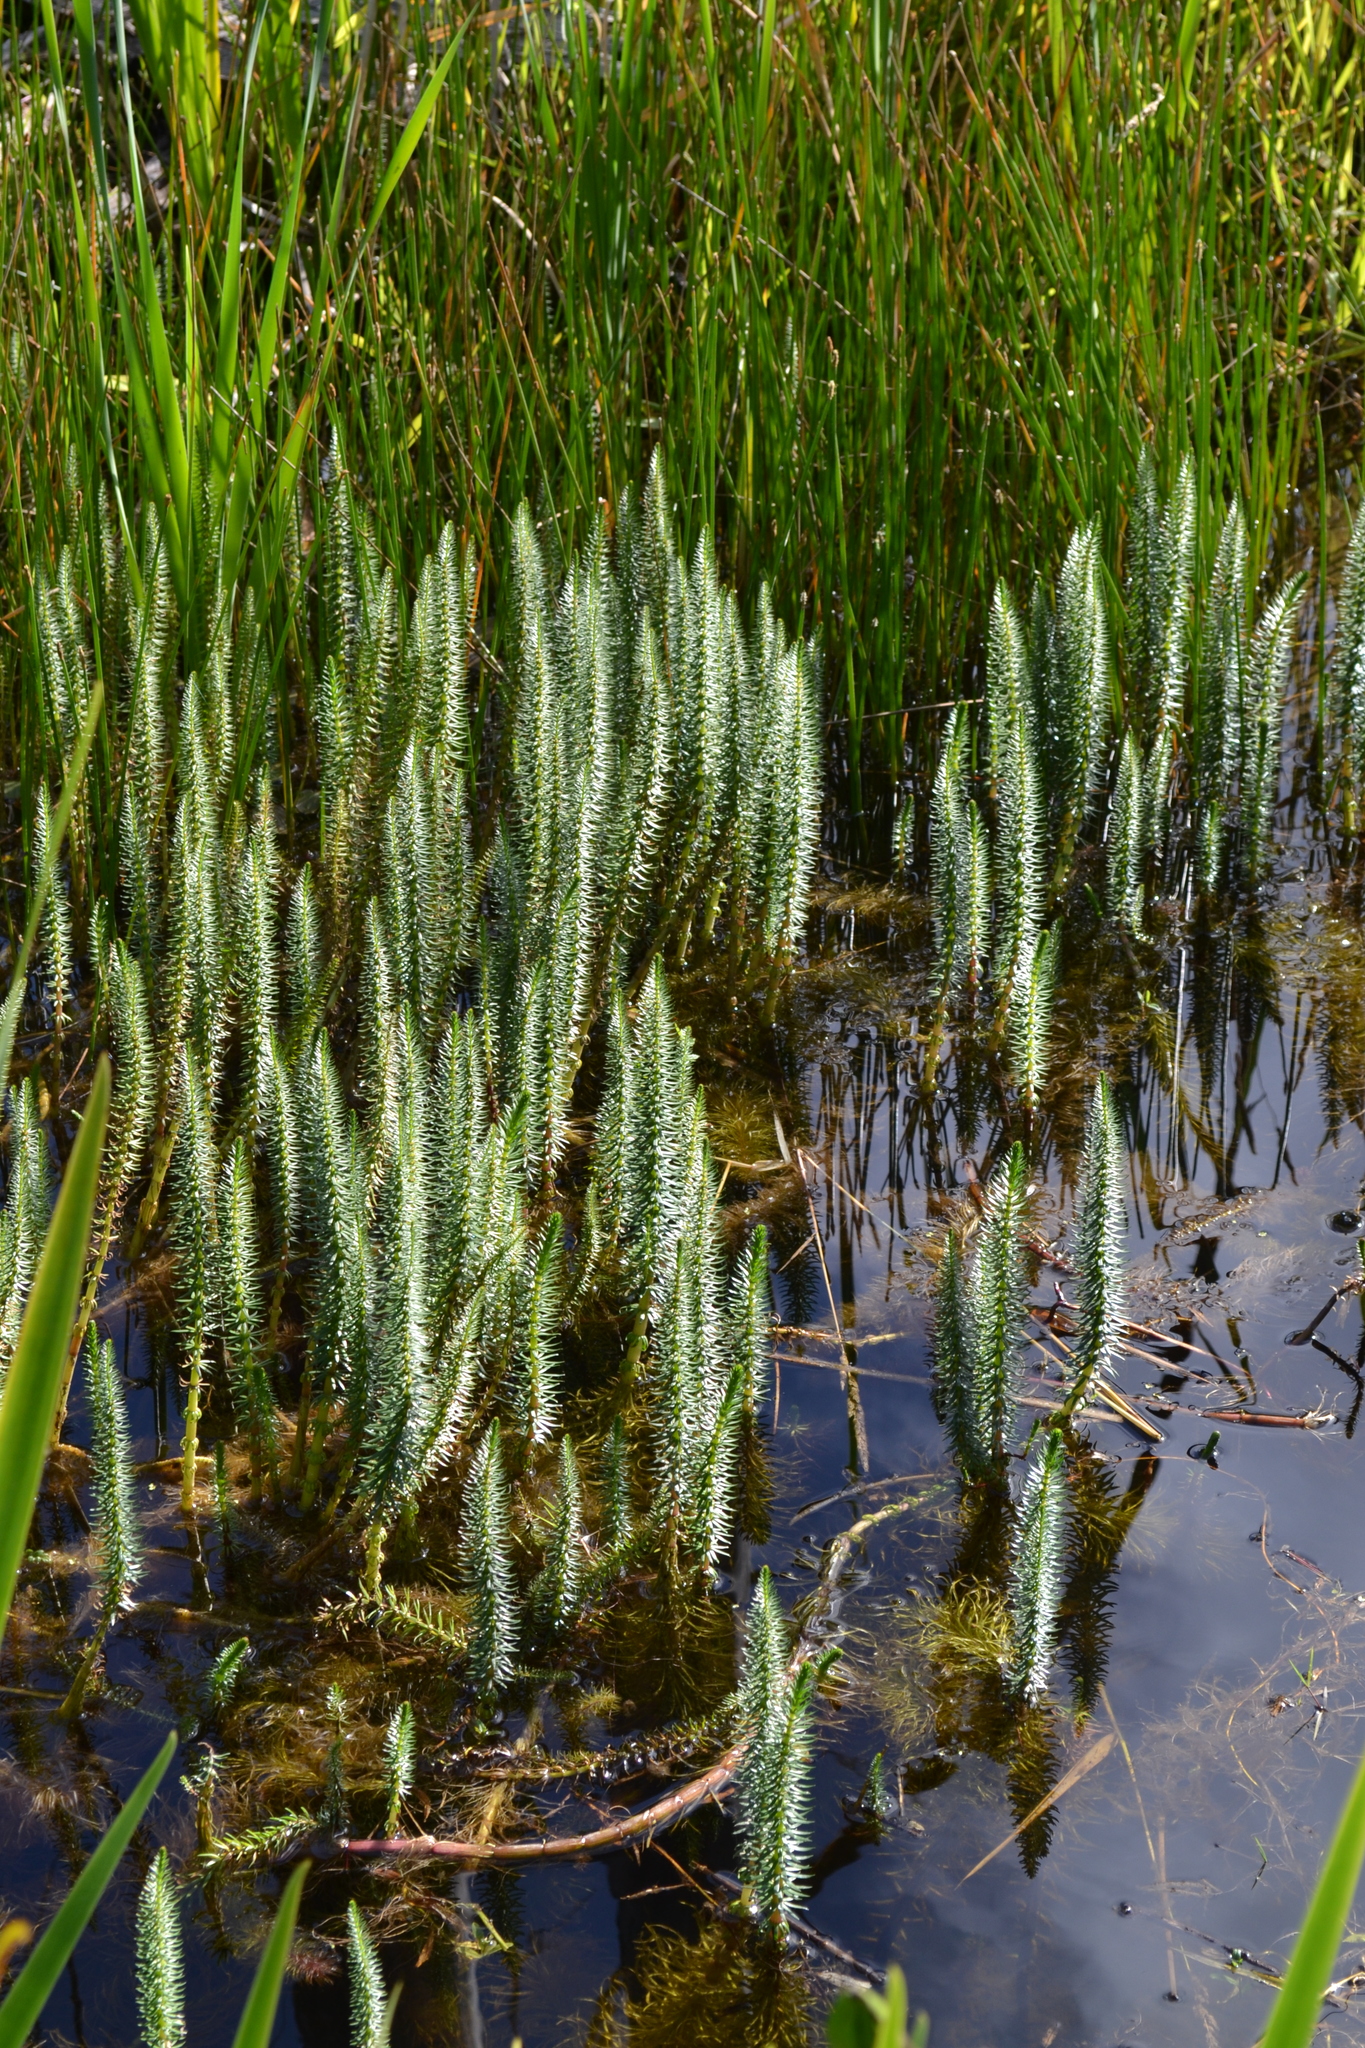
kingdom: Plantae
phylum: Tracheophyta
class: Magnoliopsida
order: Lamiales
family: Plantaginaceae
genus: Hippuris
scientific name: Hippuris vulgaris
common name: Mare's-tail
